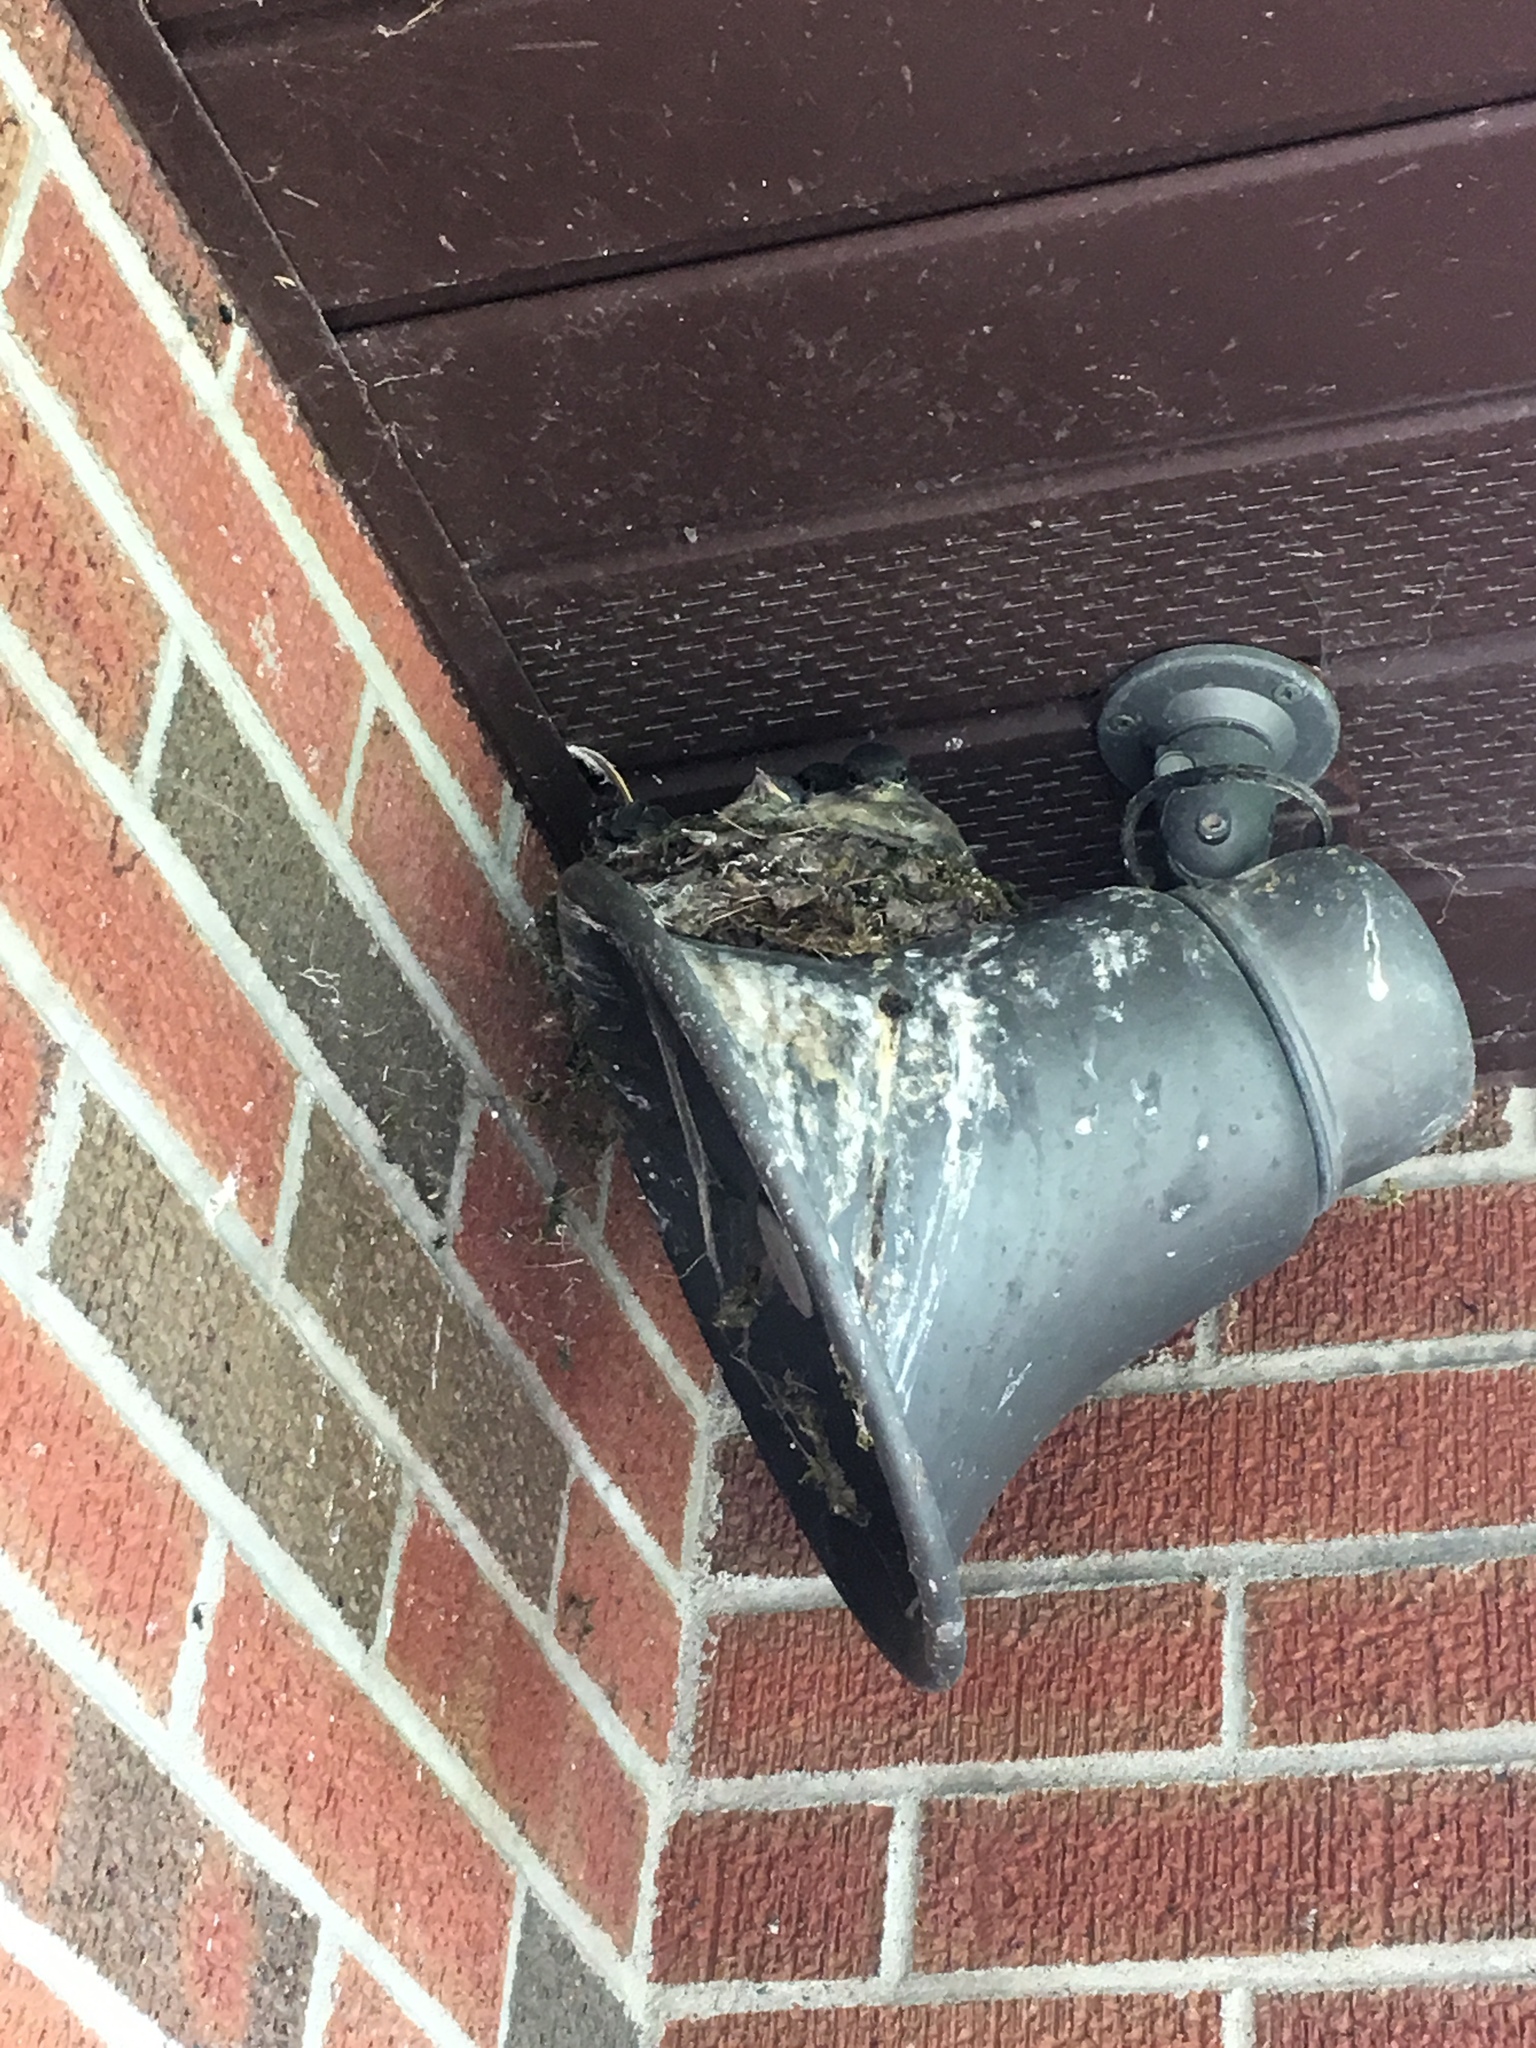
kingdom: Animalia
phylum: Chordata
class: Aves
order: Passeriformes
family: Tyrannidae
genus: Sayornis
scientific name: Sayornis phoebe
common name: Eastern phoebe
